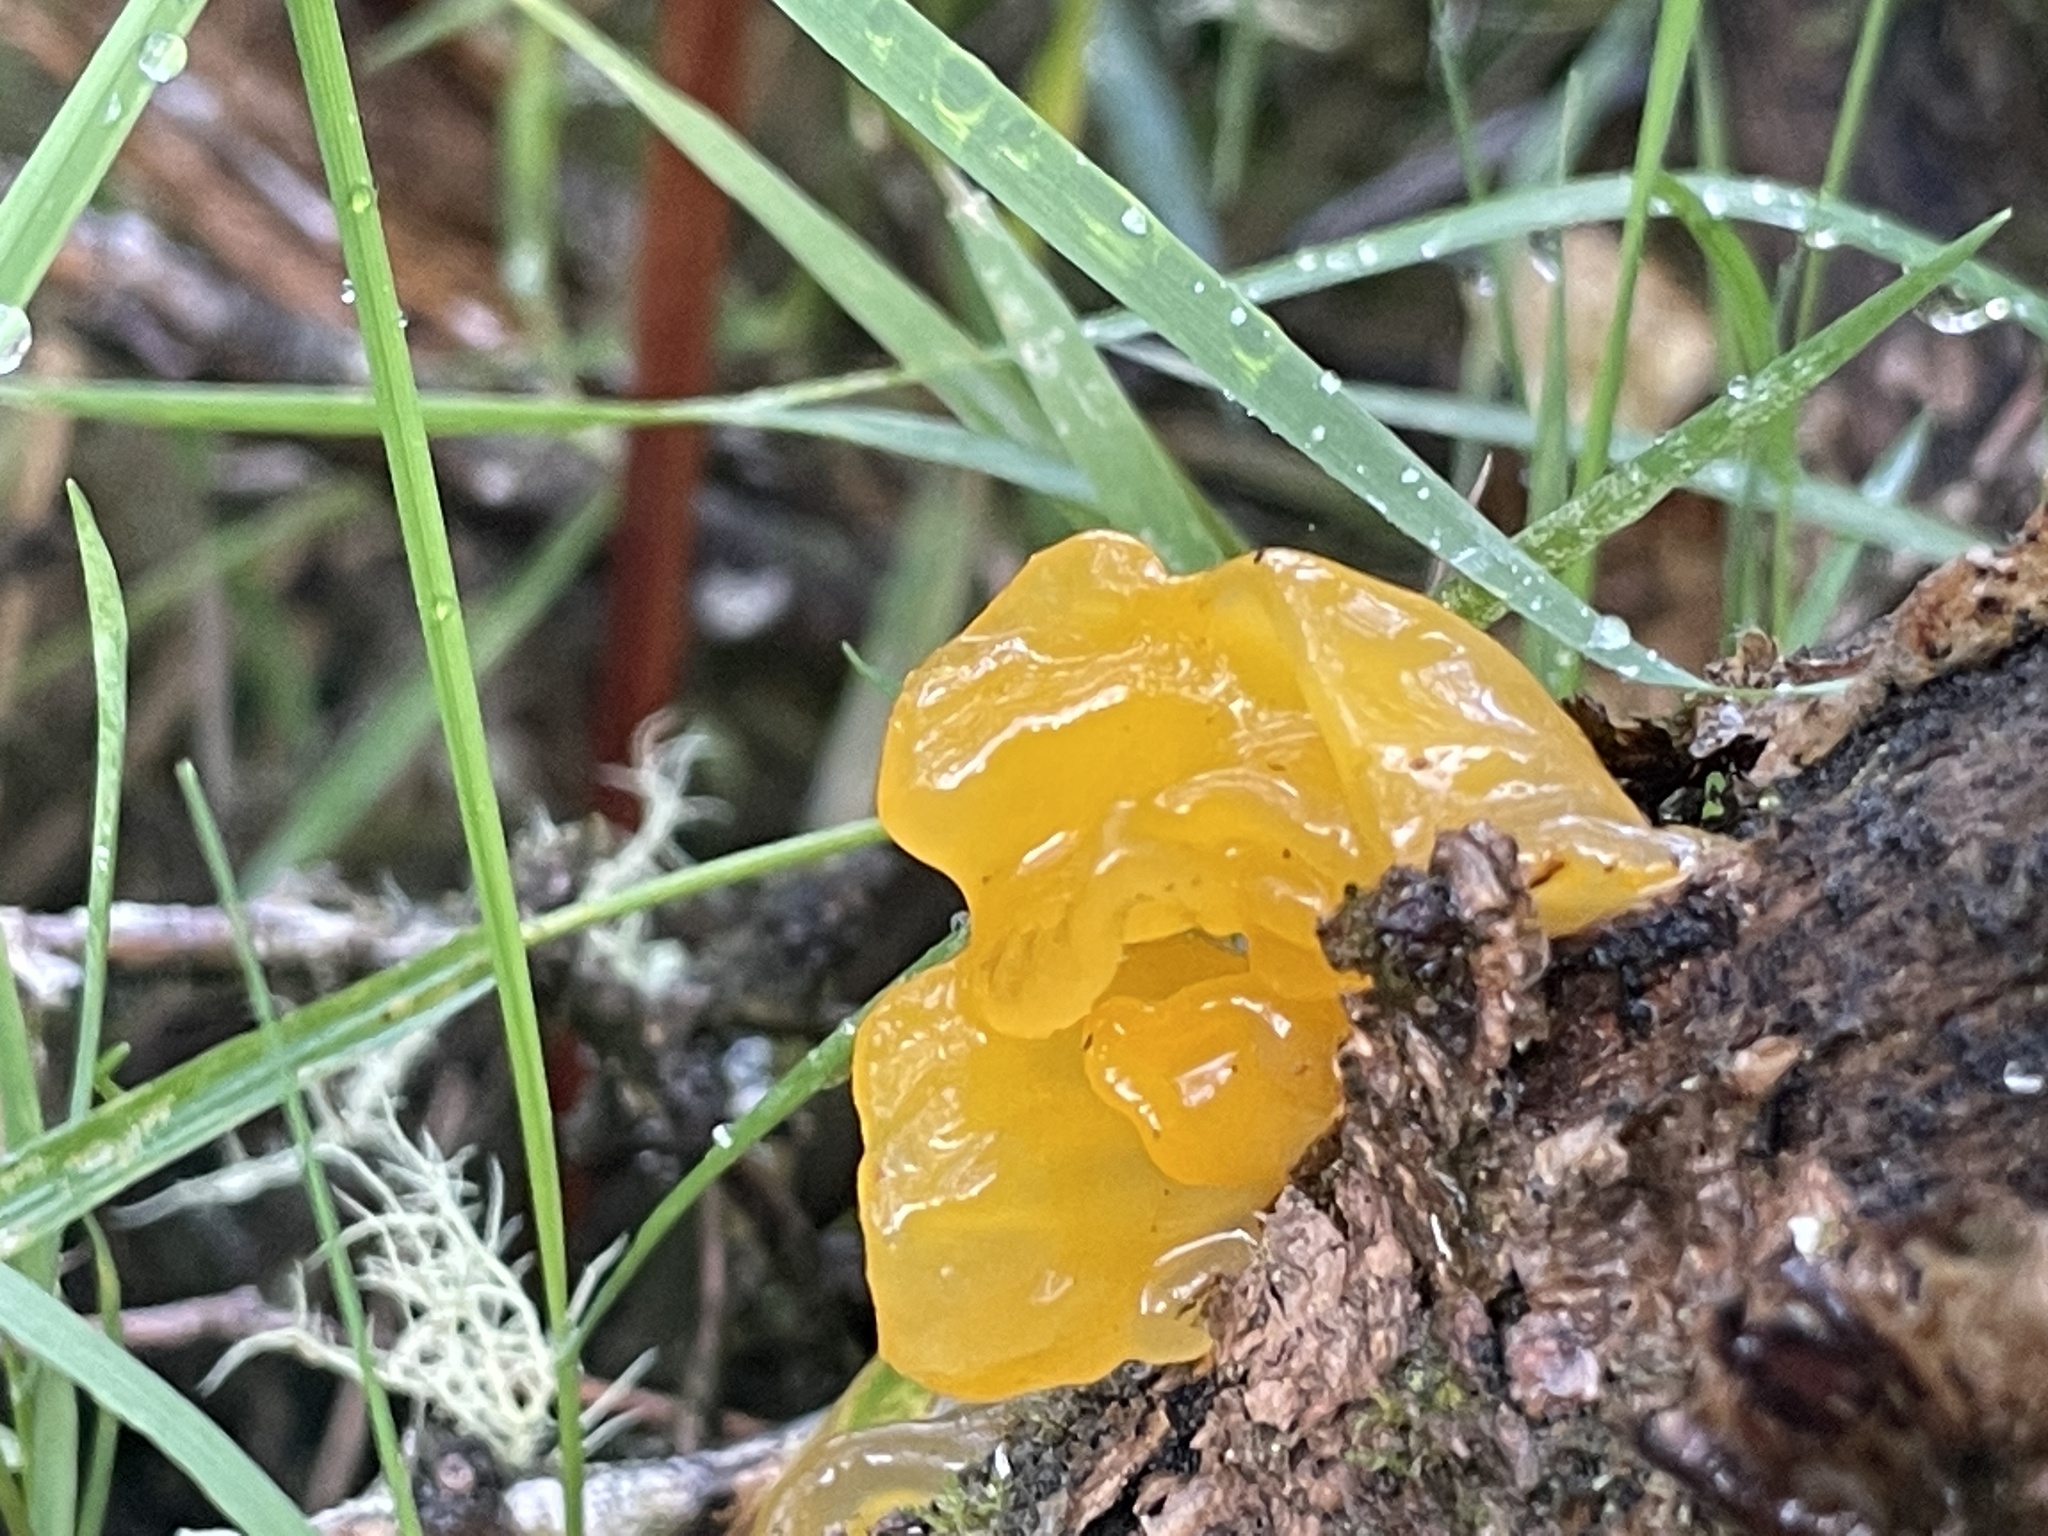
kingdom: Fungi
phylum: Basidiomycota
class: Tremellomycetes
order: Tremellales
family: Tremellaceae
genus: Tremella
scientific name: Tremella mesenterica
